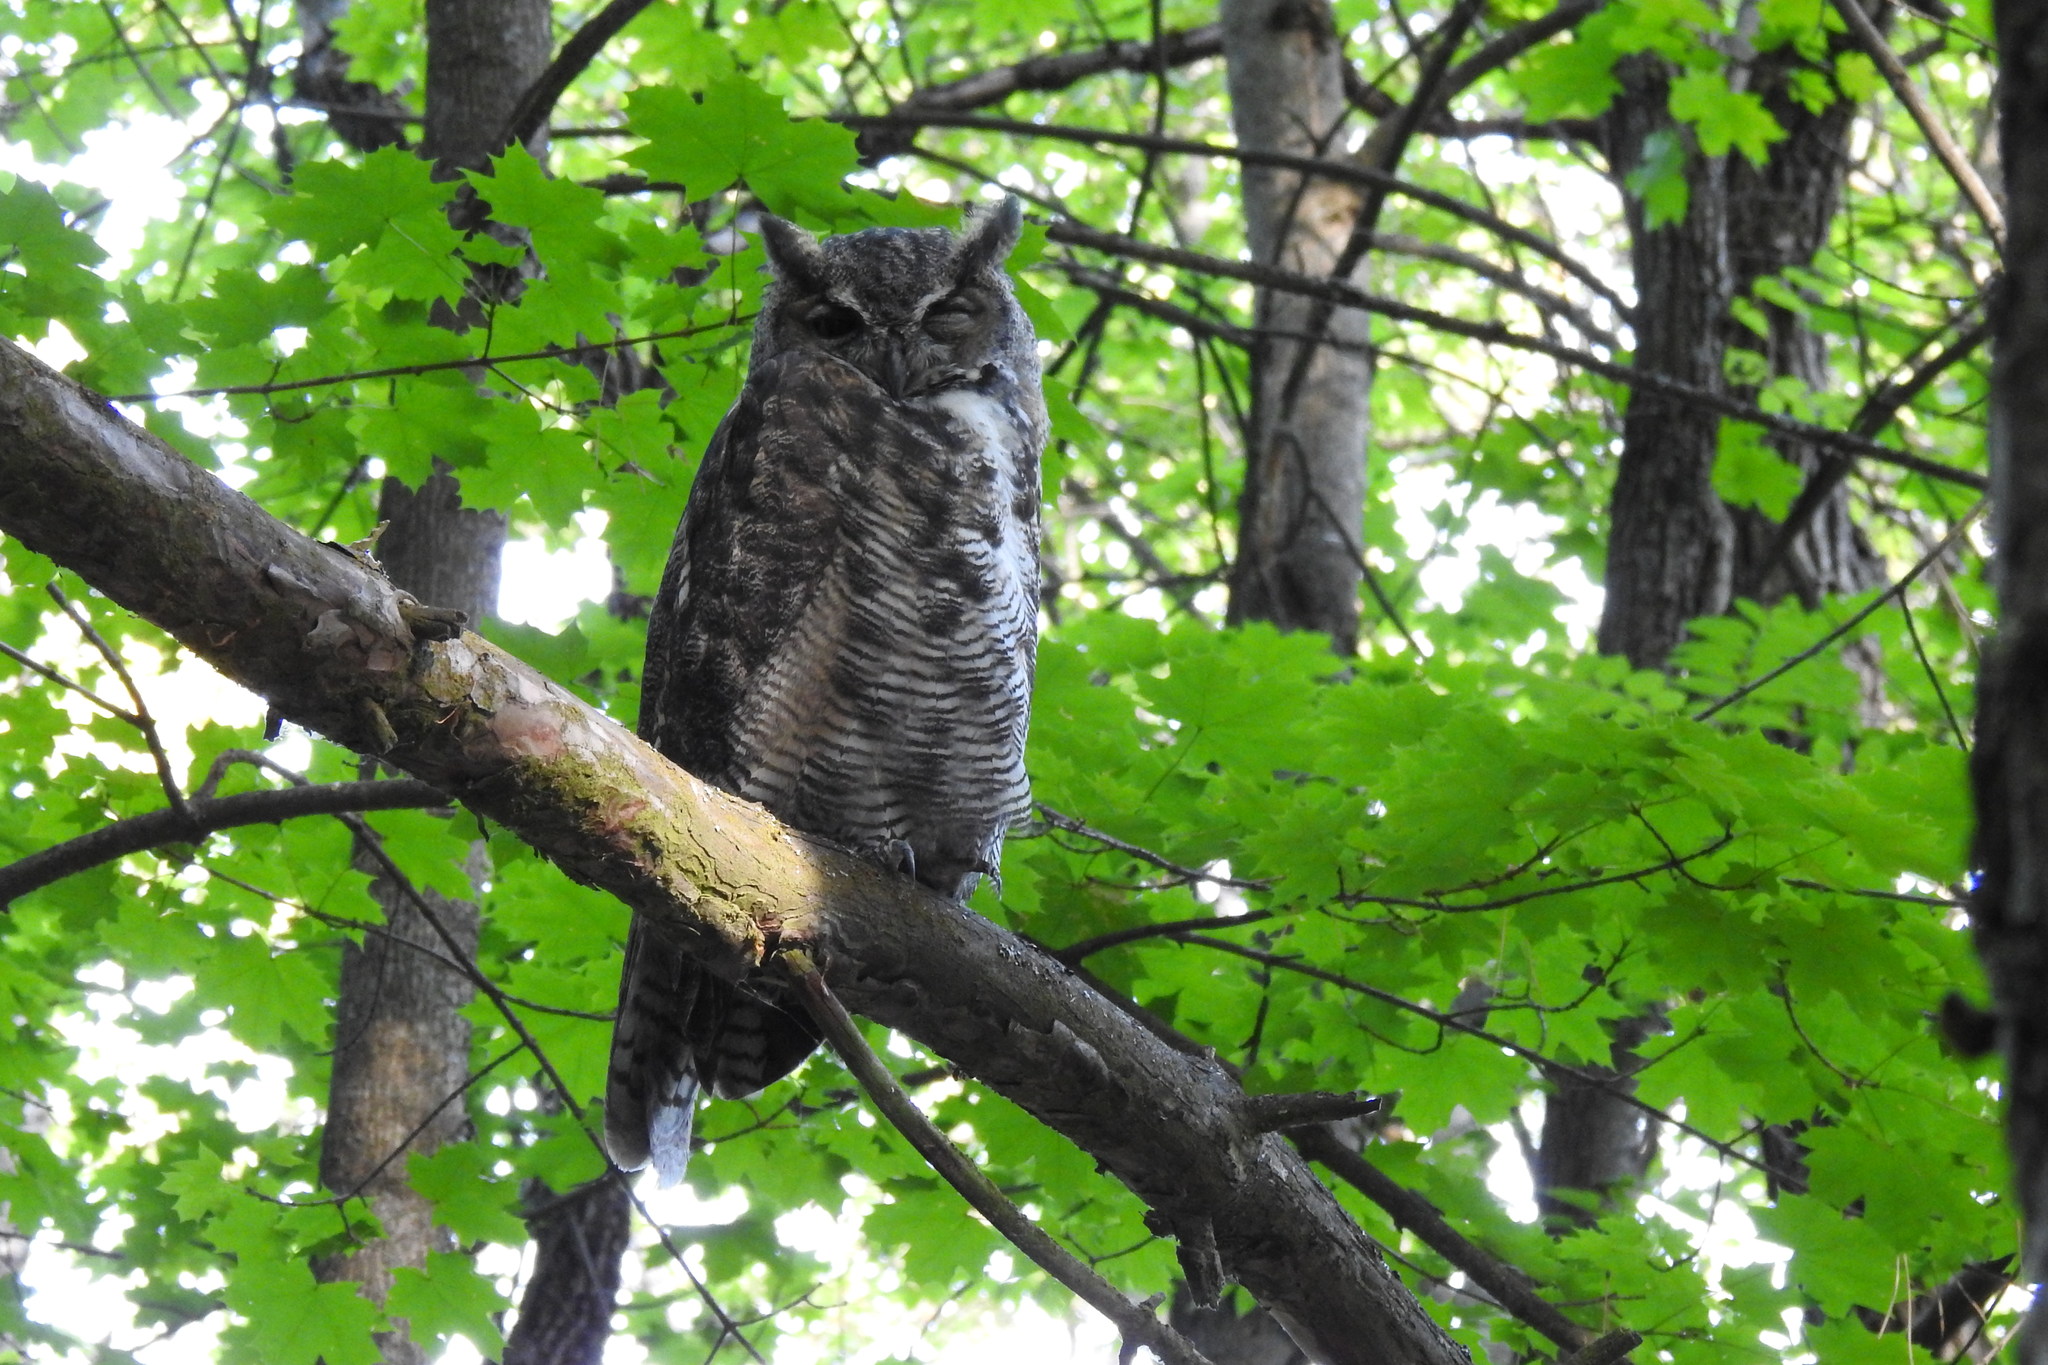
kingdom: Animalia
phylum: Chordata
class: Aves
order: Strigiformes
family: Strigidae
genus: Bubo
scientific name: Bubo virginianus
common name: Great horned owl
